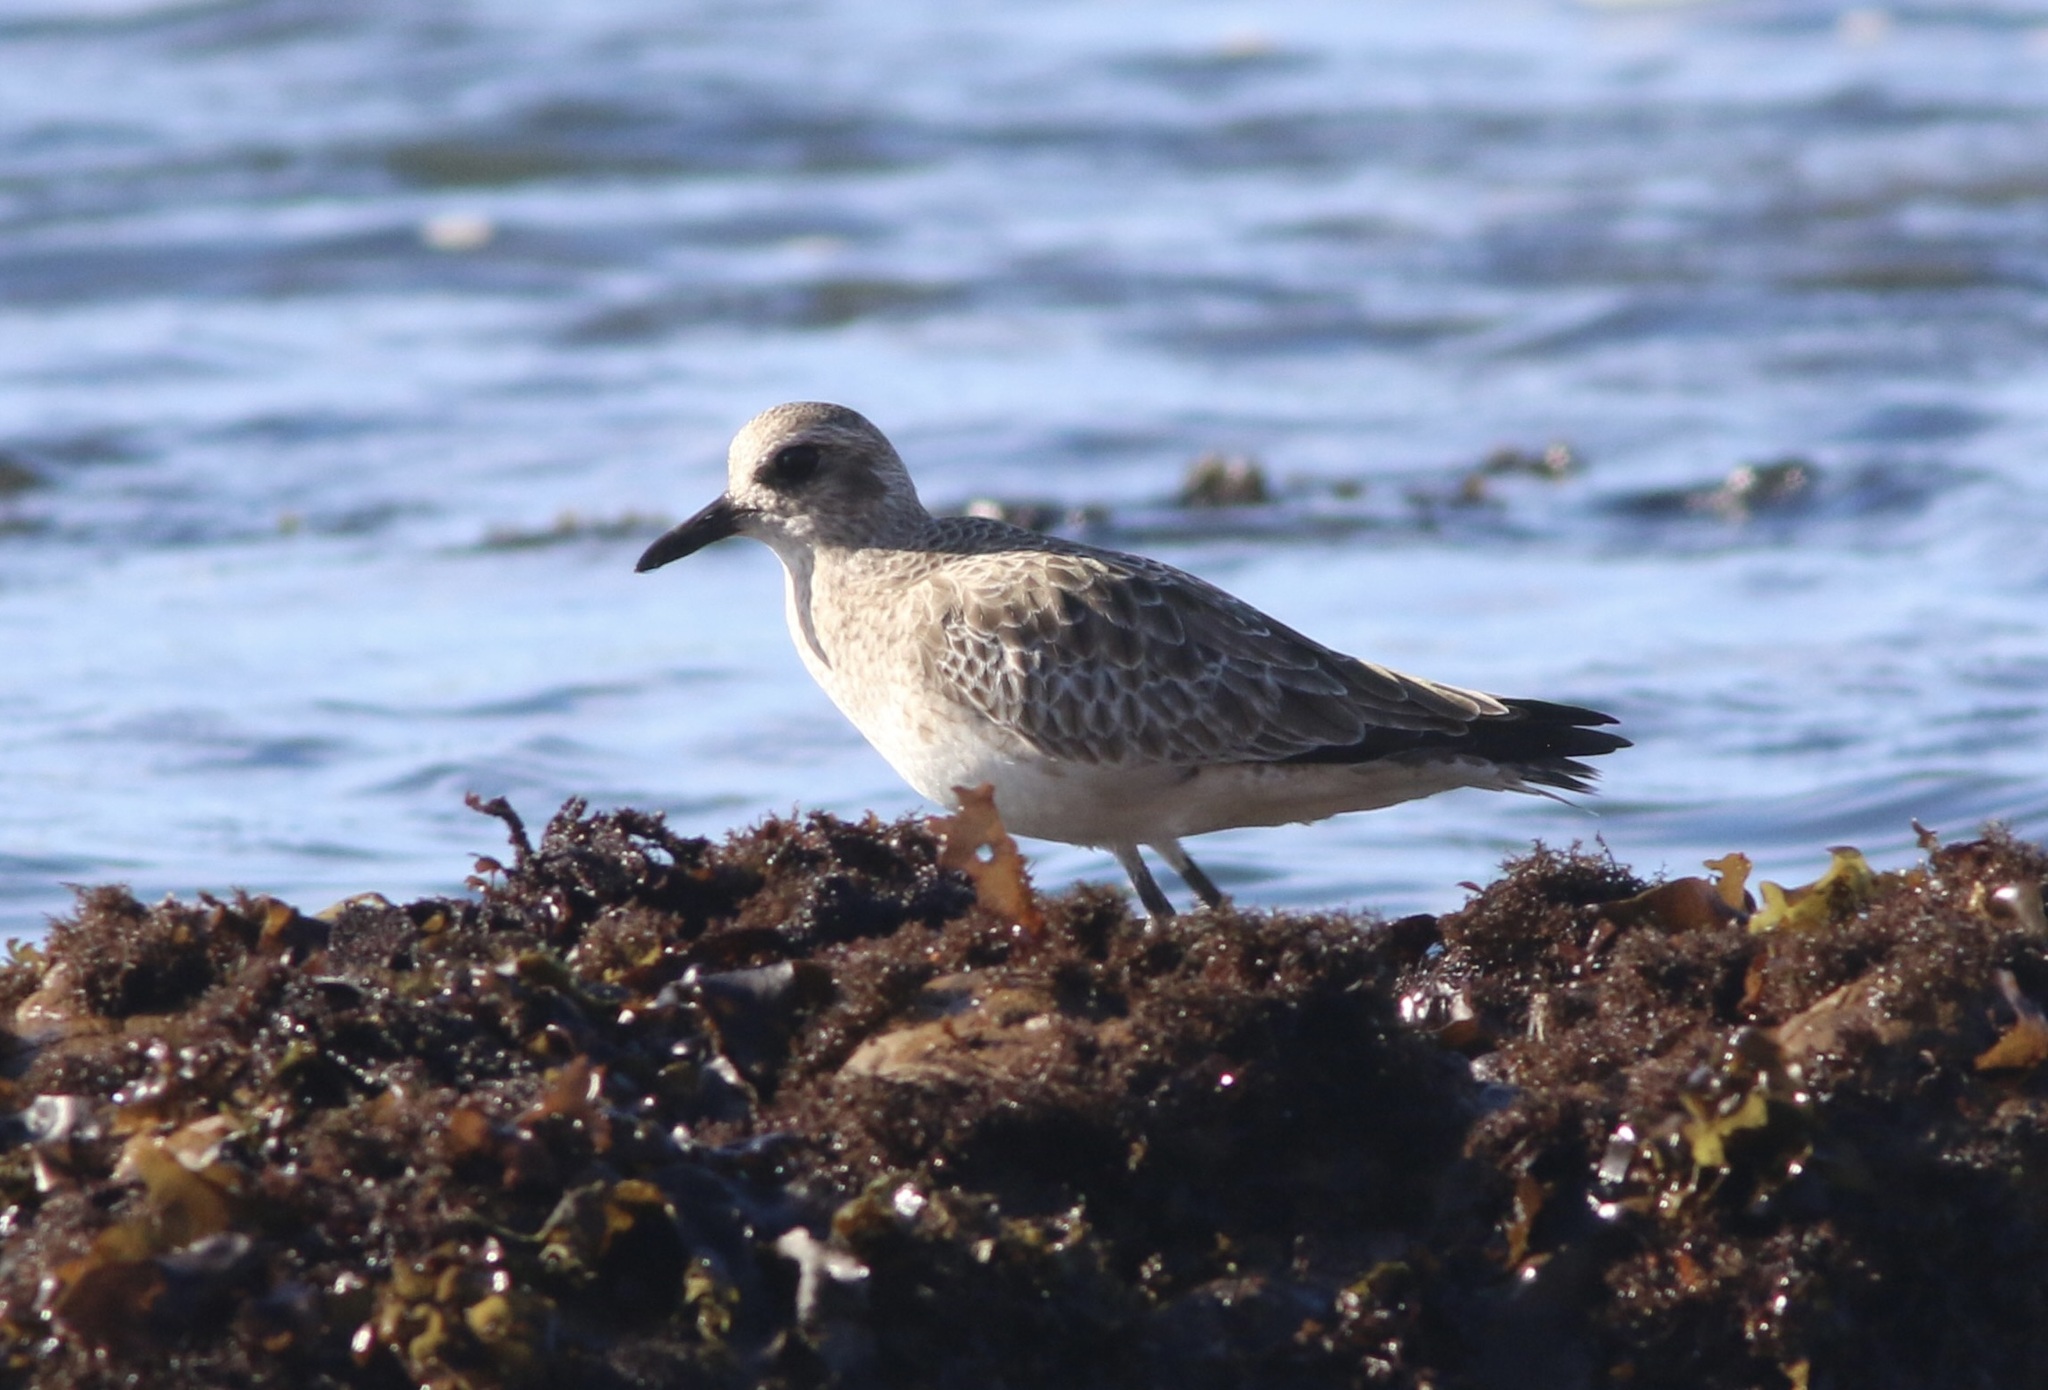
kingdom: Animalia
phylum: Chordata
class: Aves
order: Charadriiformes
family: Charadriidae
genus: Pluvialis
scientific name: Pluvialis squatarola
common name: Grey plover
